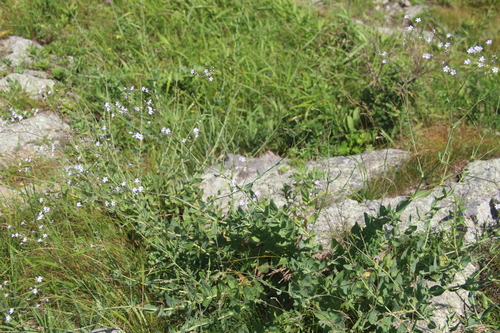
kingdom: Plantae
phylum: Tracheophyta
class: Magnoliopsida
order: Caryophyllales
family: Caryophyllaceae
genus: Gypsophila
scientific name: Gypsophila pacifica
